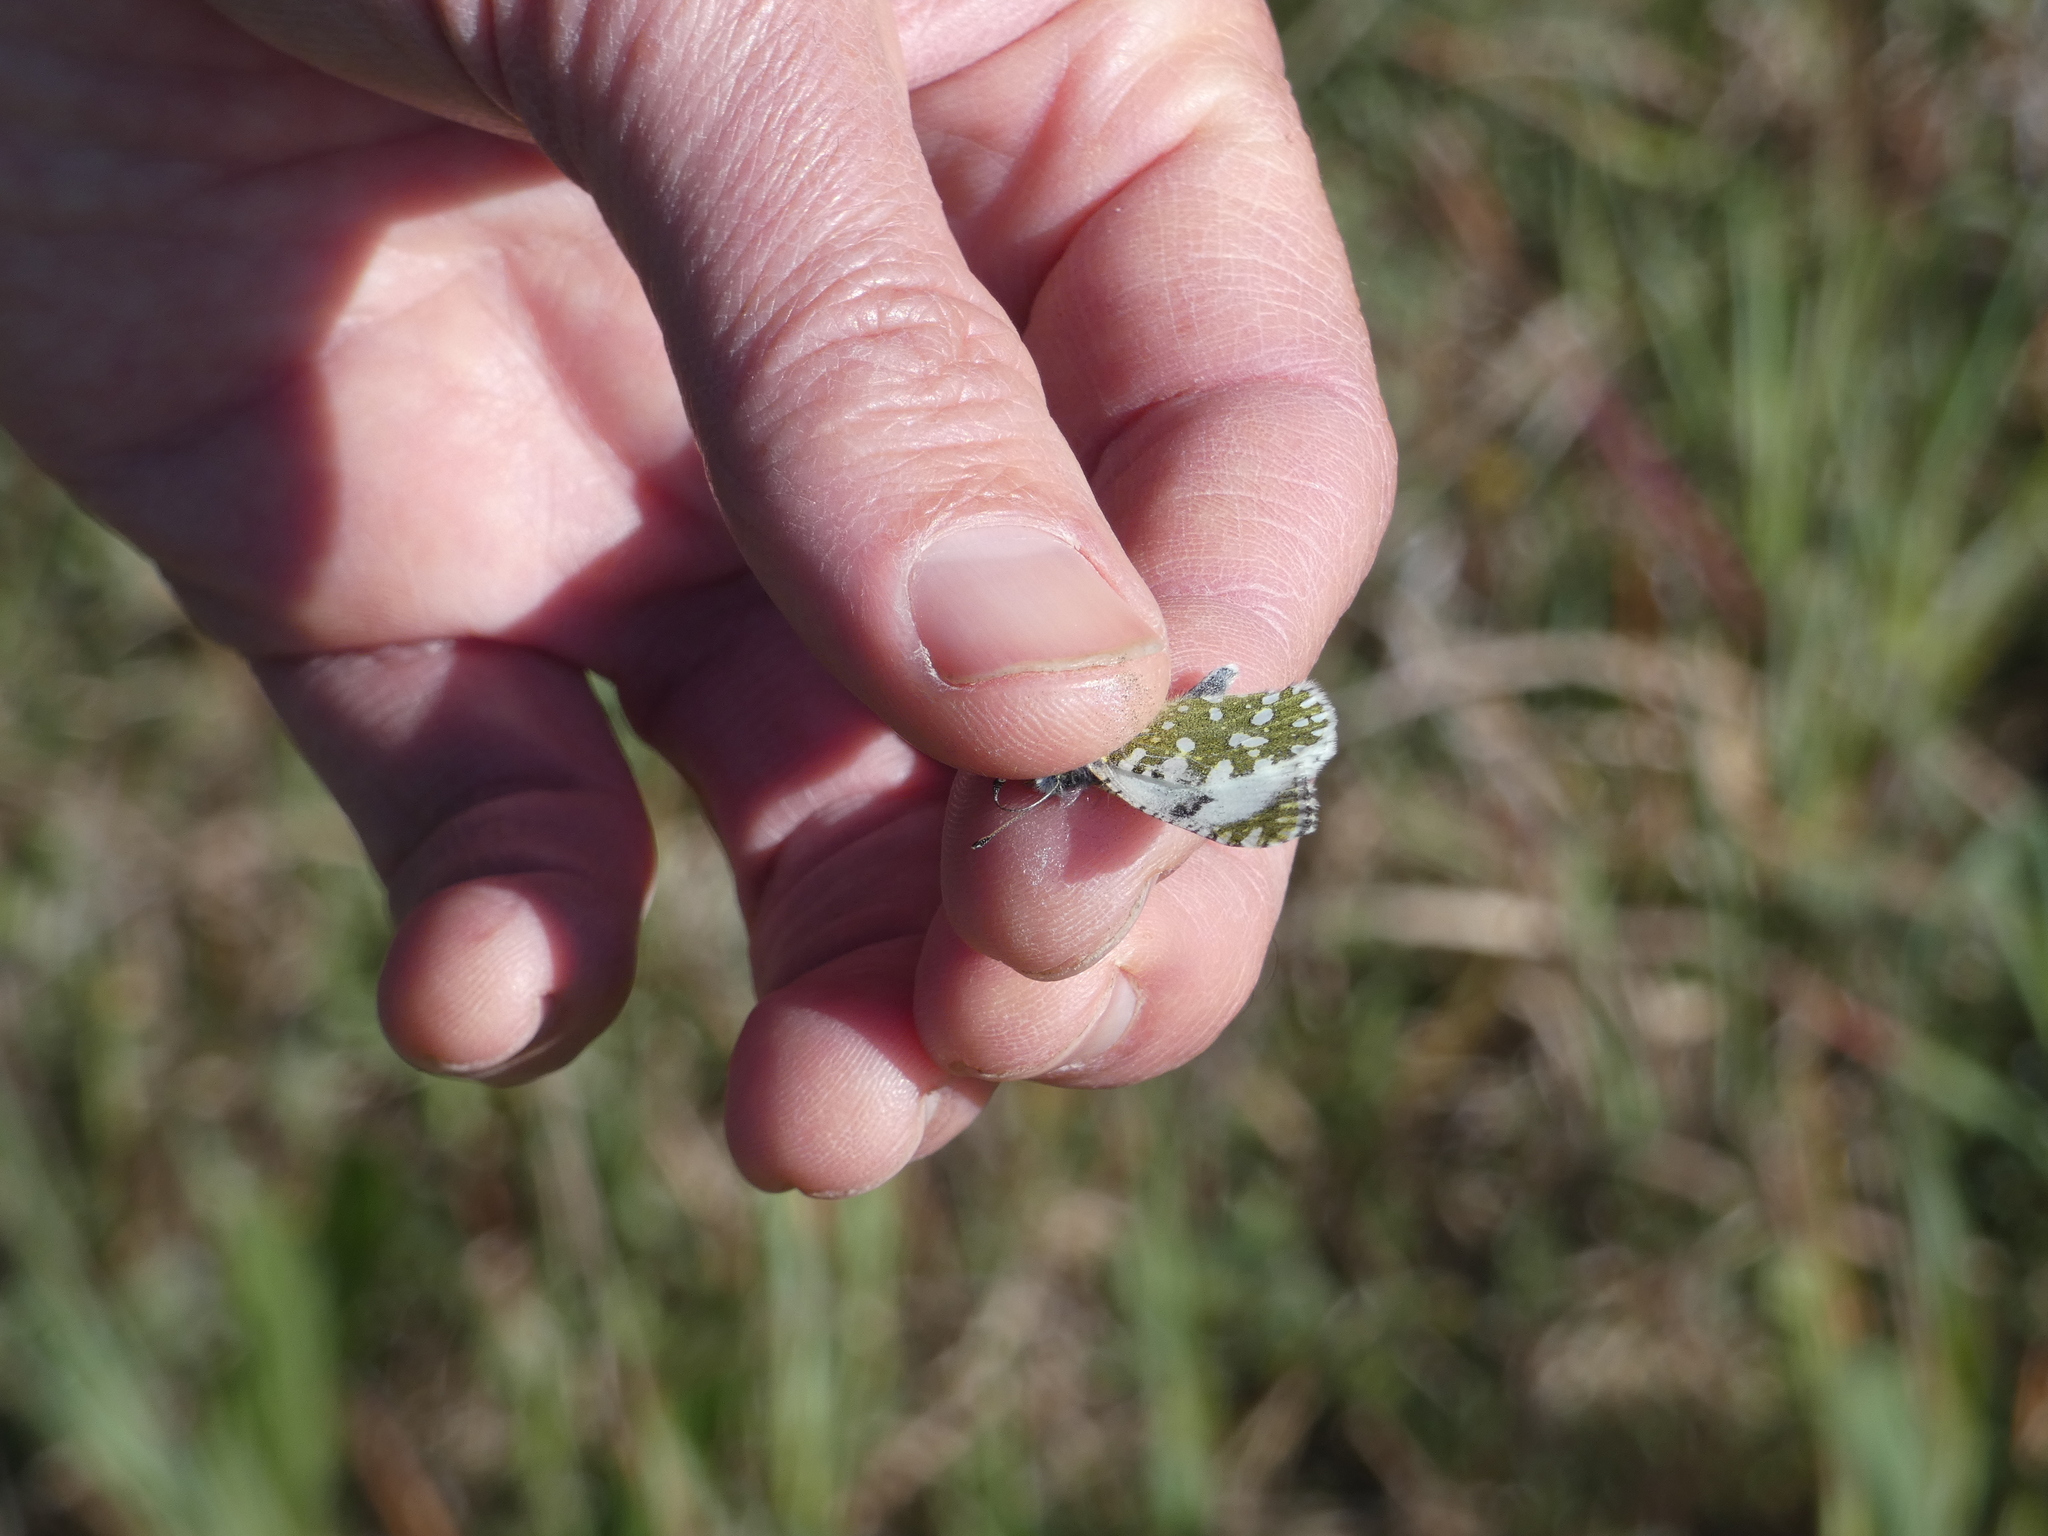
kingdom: Animalia
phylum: Arthropoda
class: Insecta
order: Lepidoptera
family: Pieridae
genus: Euchloe
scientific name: Euchloe tagis
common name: Portuguese dappled white
